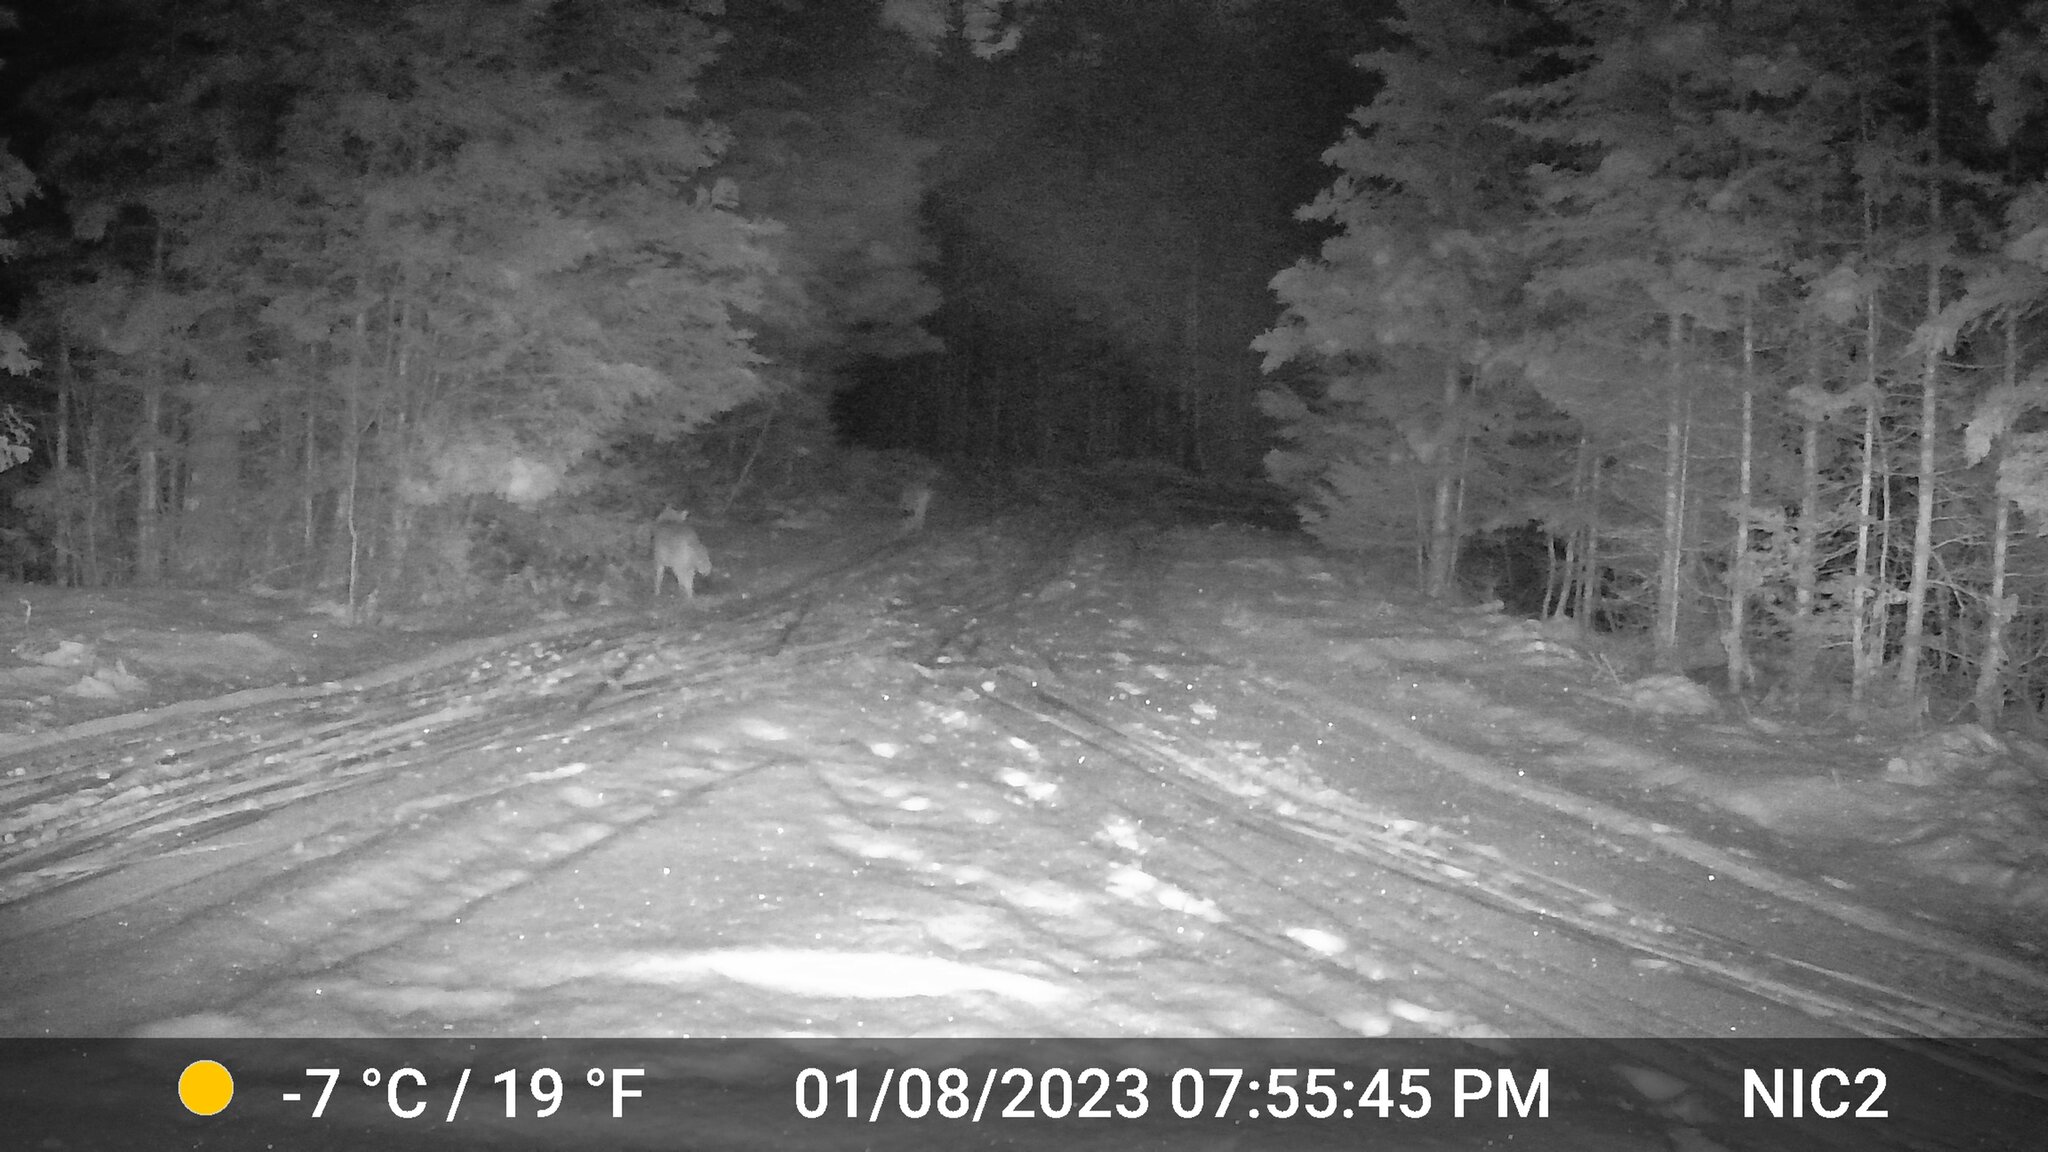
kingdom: Animalia
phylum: Chordata
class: Mammalia
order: Carnivora
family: Canidae
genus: Canis
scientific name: Canis latrans
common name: Coyote
